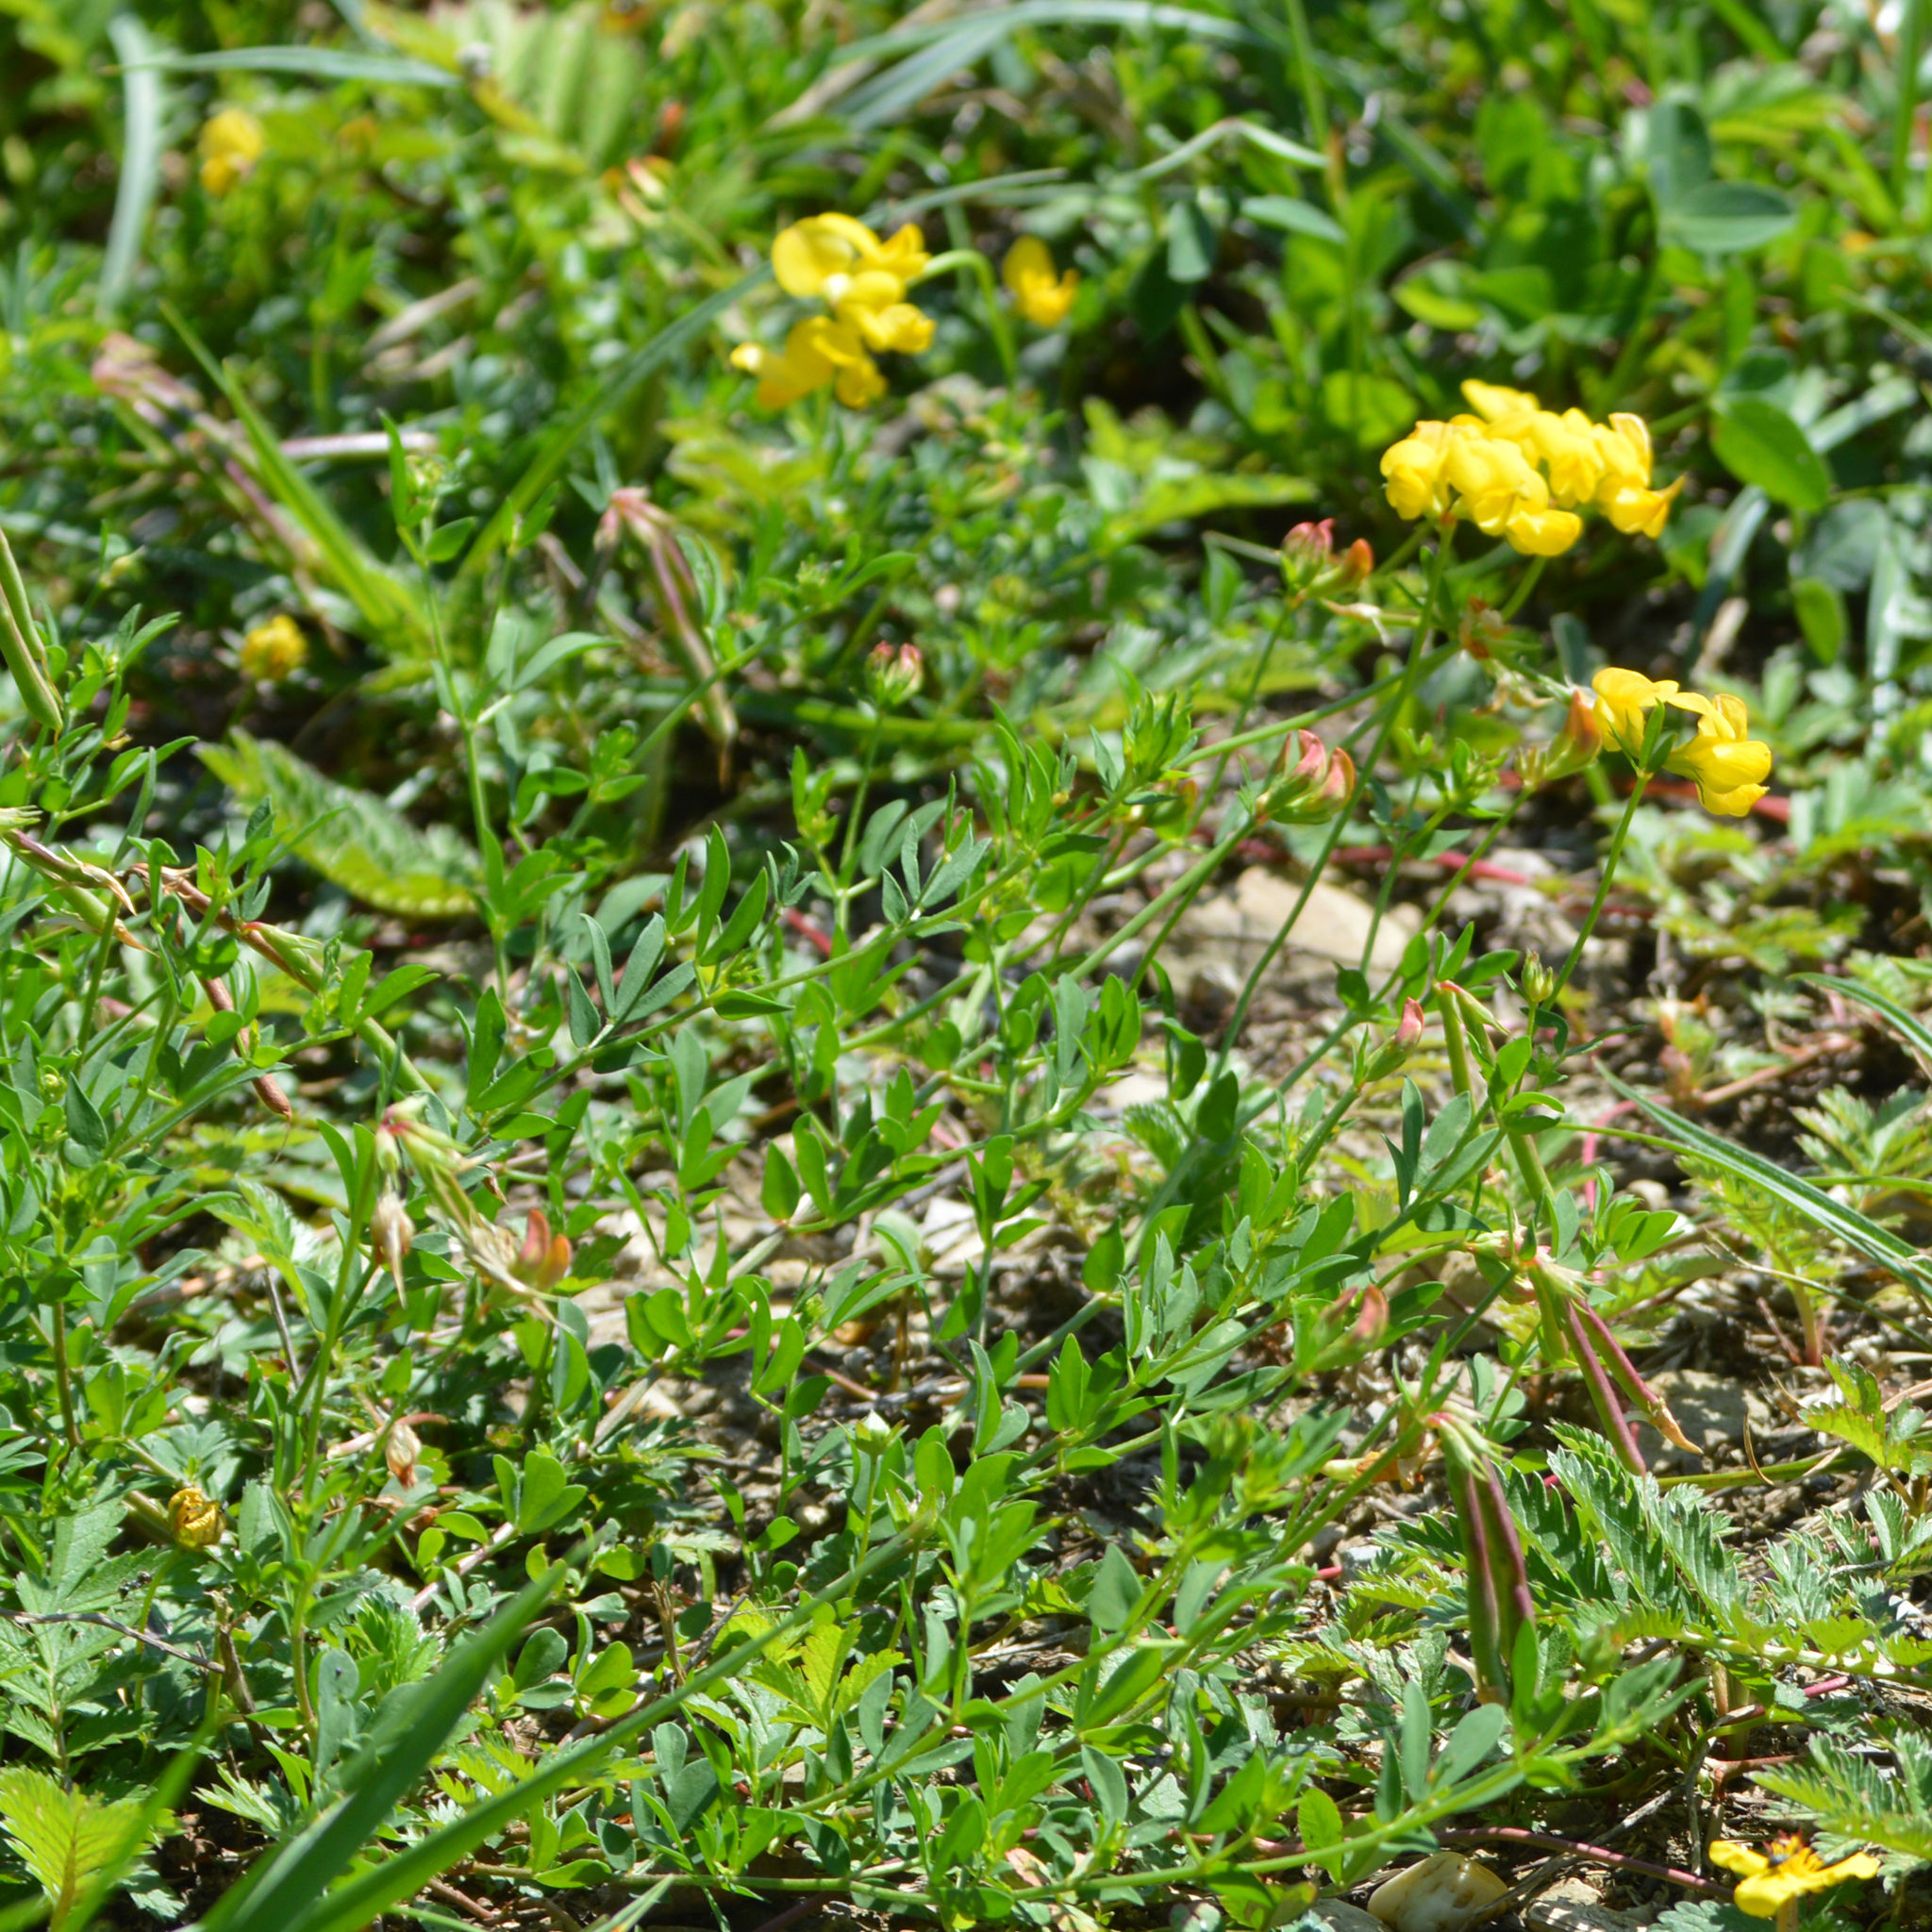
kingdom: Plantae
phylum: Tracheophyta
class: Magnoliopsida
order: Fabales
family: Fabaceae
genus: Lotus
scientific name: Lotus tenuis
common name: Narrow-leaved bird's-foot-trefoil
